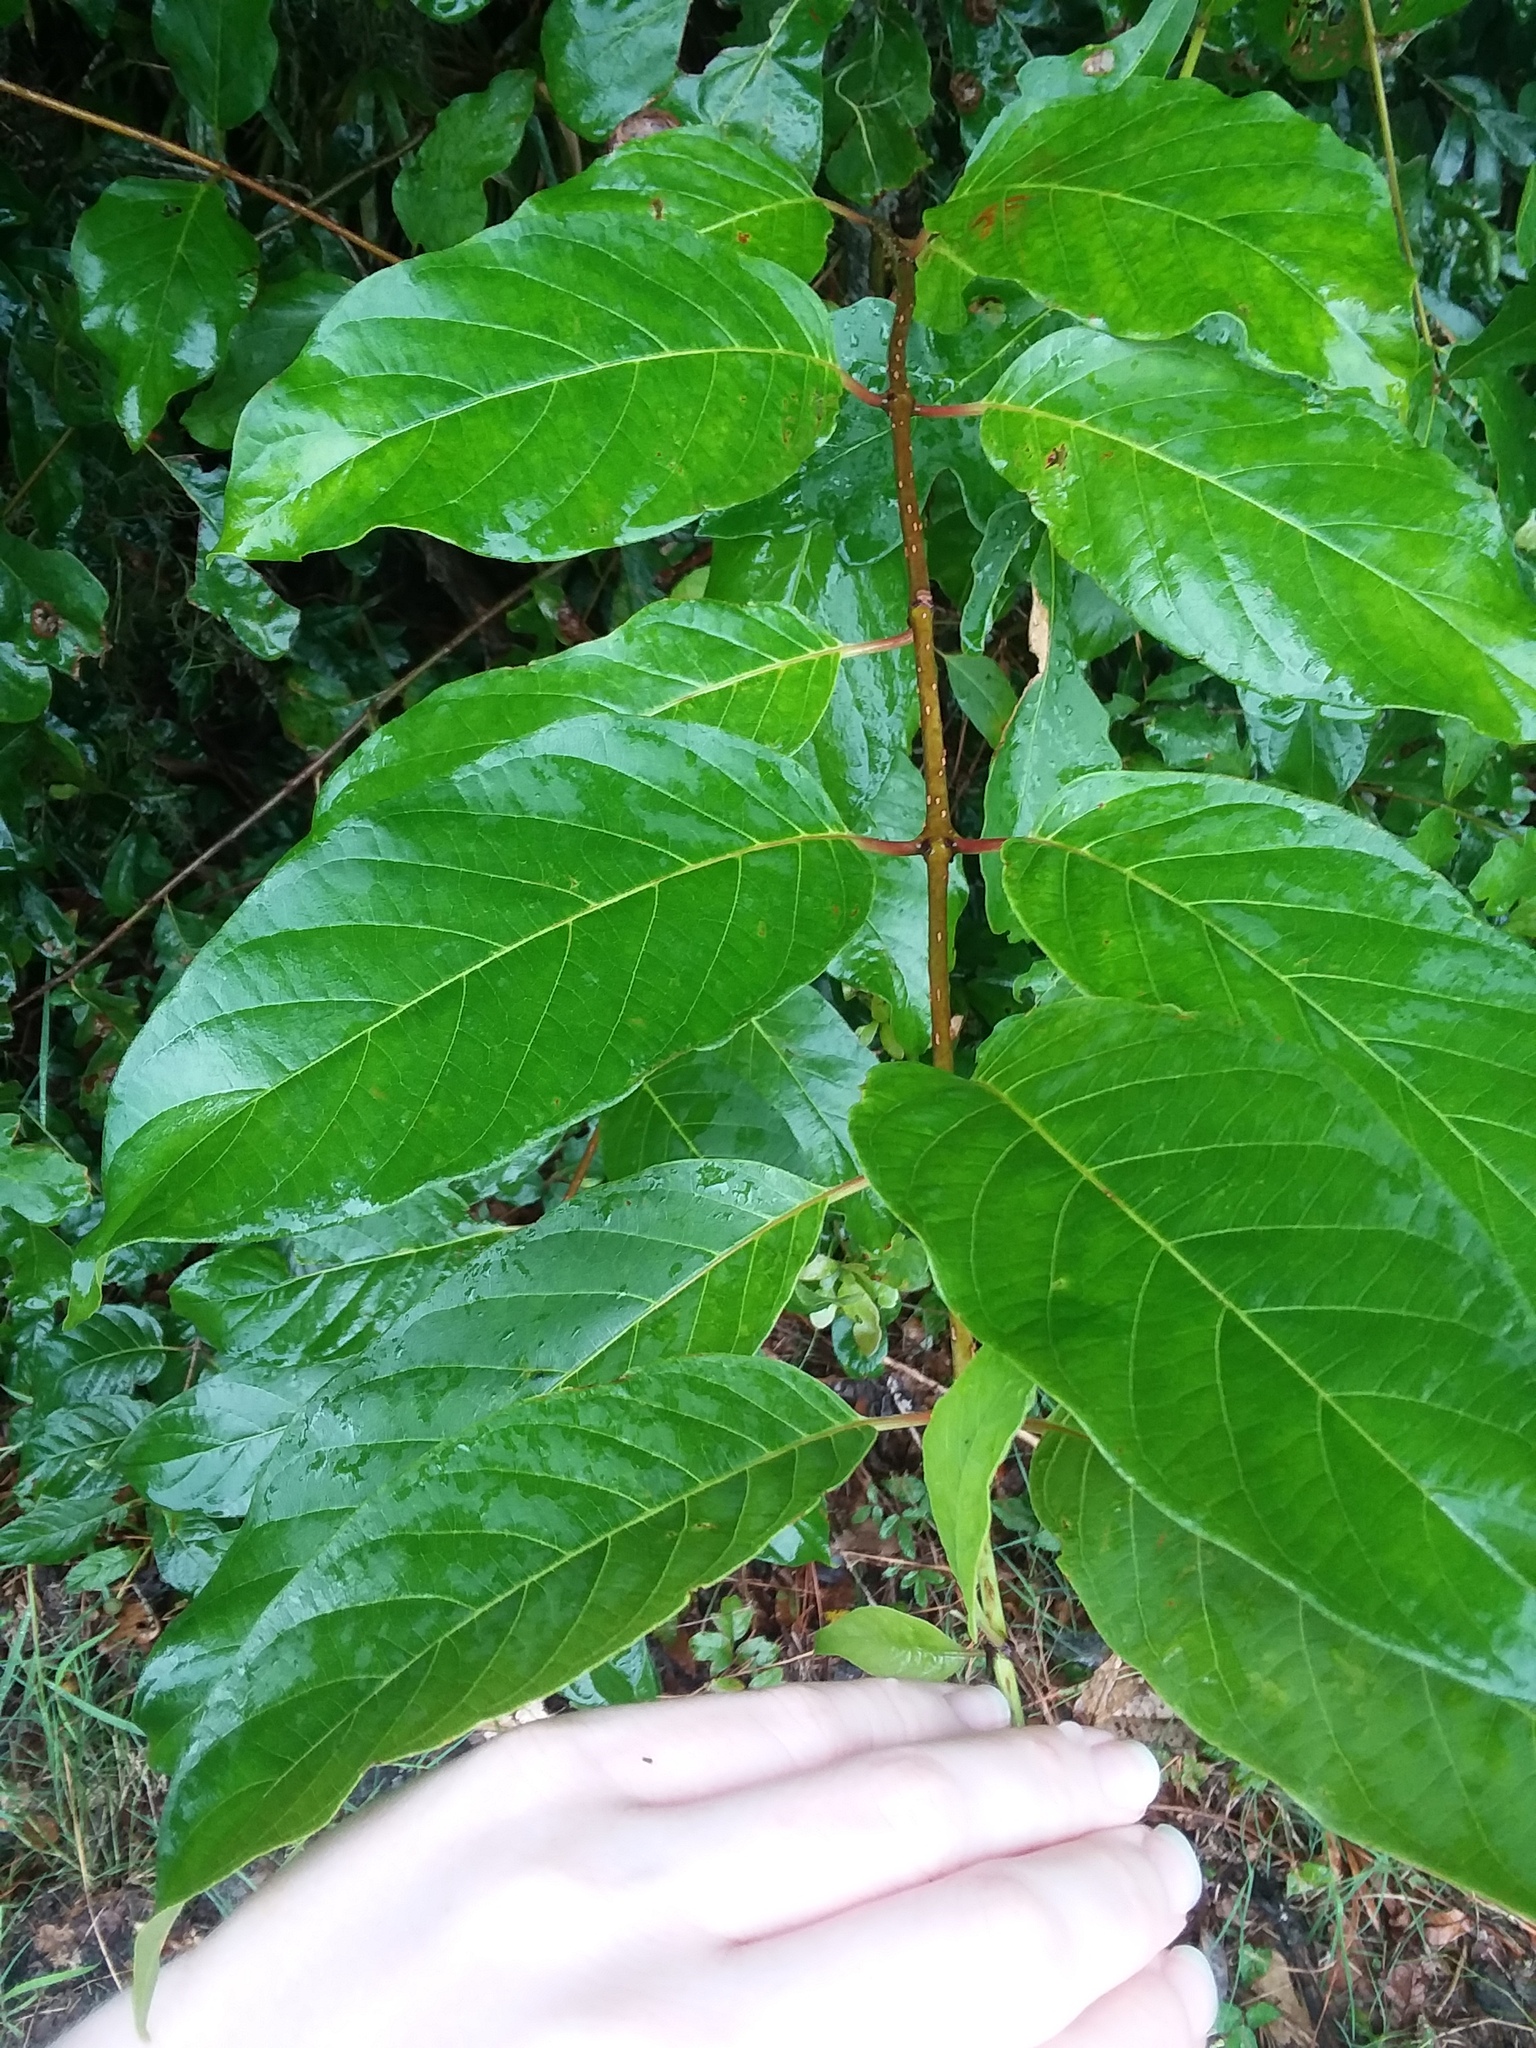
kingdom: Plantae
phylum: Tracheophyta
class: Magnoliopsida
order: Gentianales
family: Rubiaceae
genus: Cephalanthus
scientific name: Cephalanthus occidentalis
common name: Button-willow
